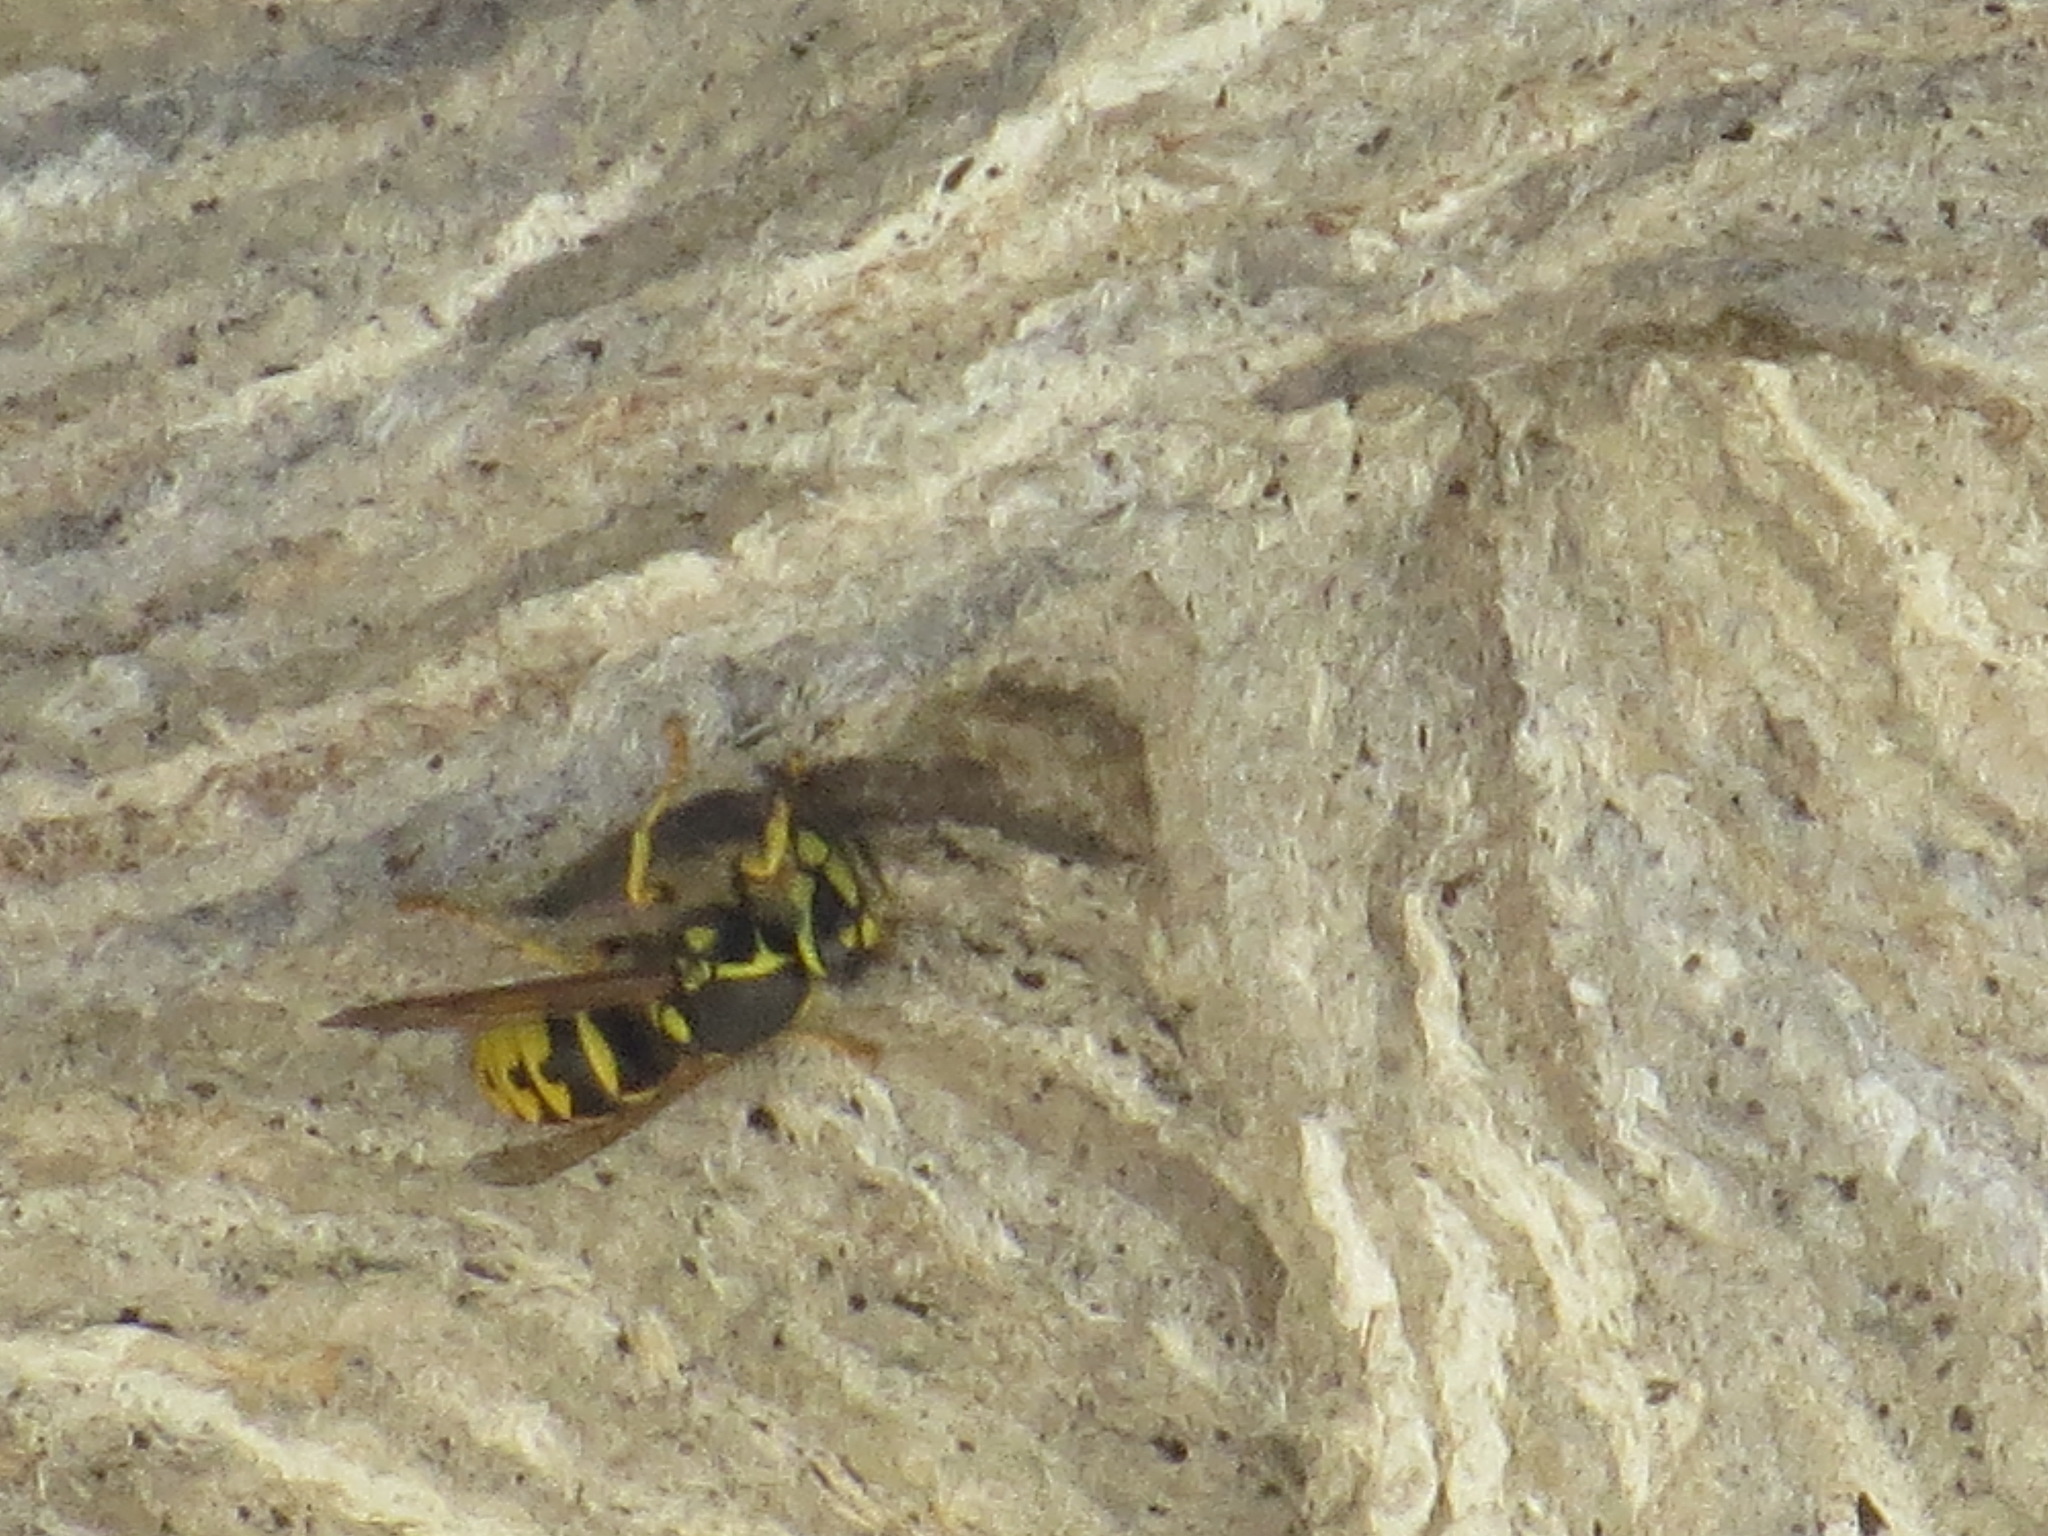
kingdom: Animalia
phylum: Arthropoda
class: Insecta
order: Hymenoptera
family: Vespidae
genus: Dolichovespula
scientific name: Dolichovespula arenaria
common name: Aerial yellowjacket
